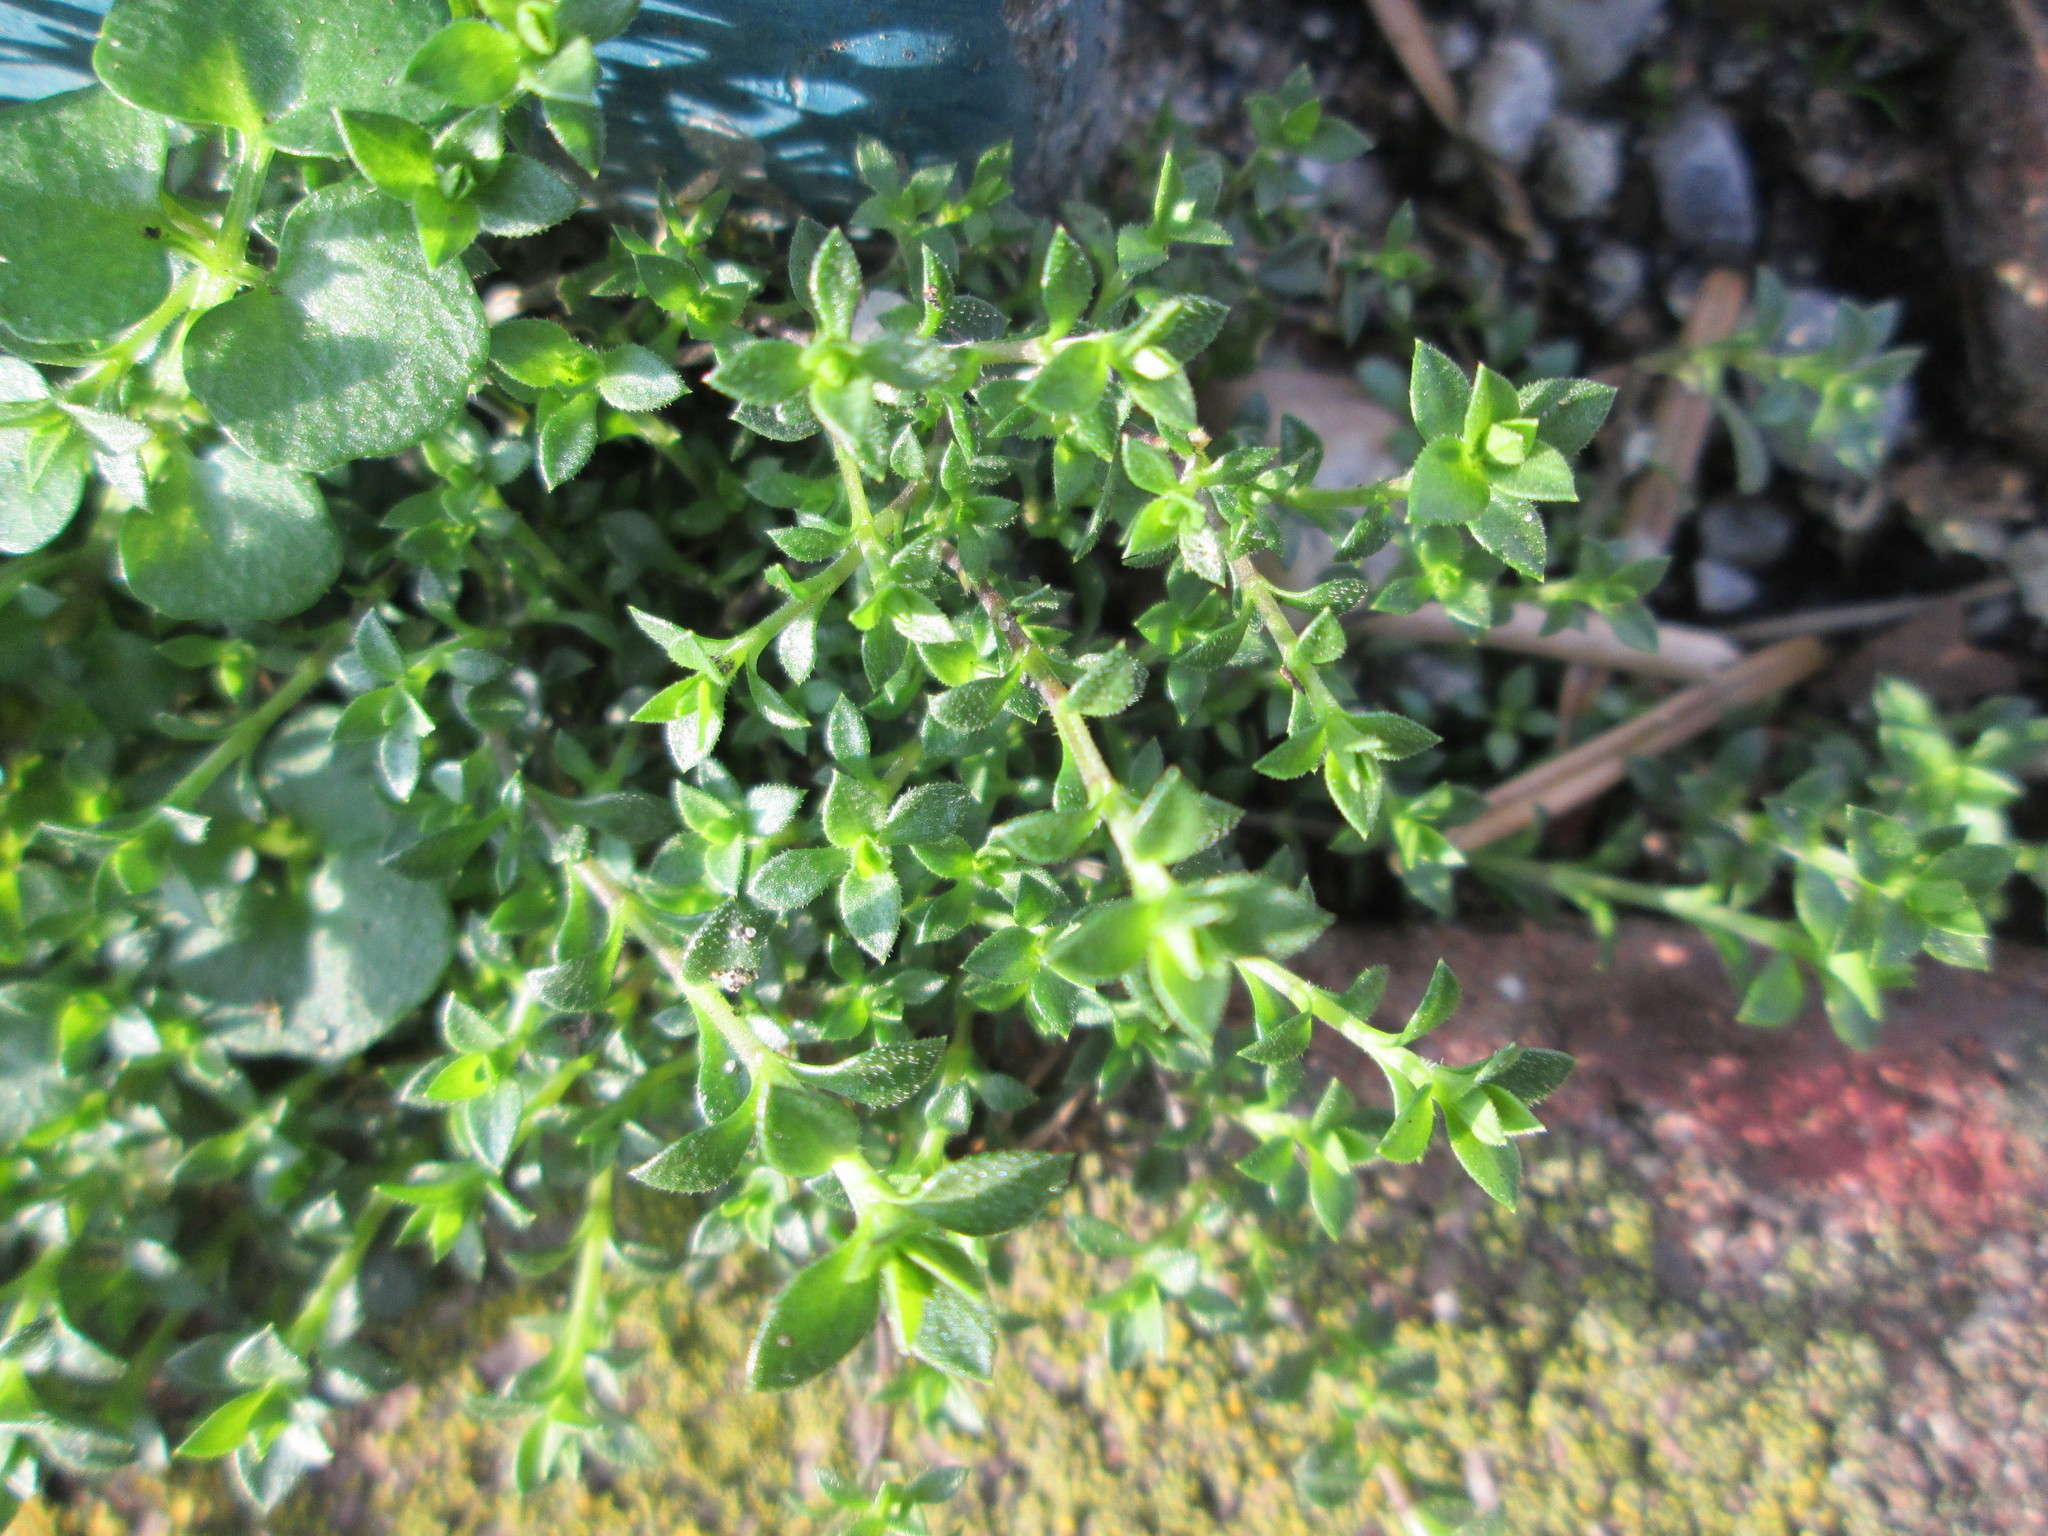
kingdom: Plantae
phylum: Tracheophyta
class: Magnoliopsida
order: Caryophyllales
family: Caryophyllaceae
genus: Arenaria
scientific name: Arenaria serpyllifolia
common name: Thyme-leaved sandwort
